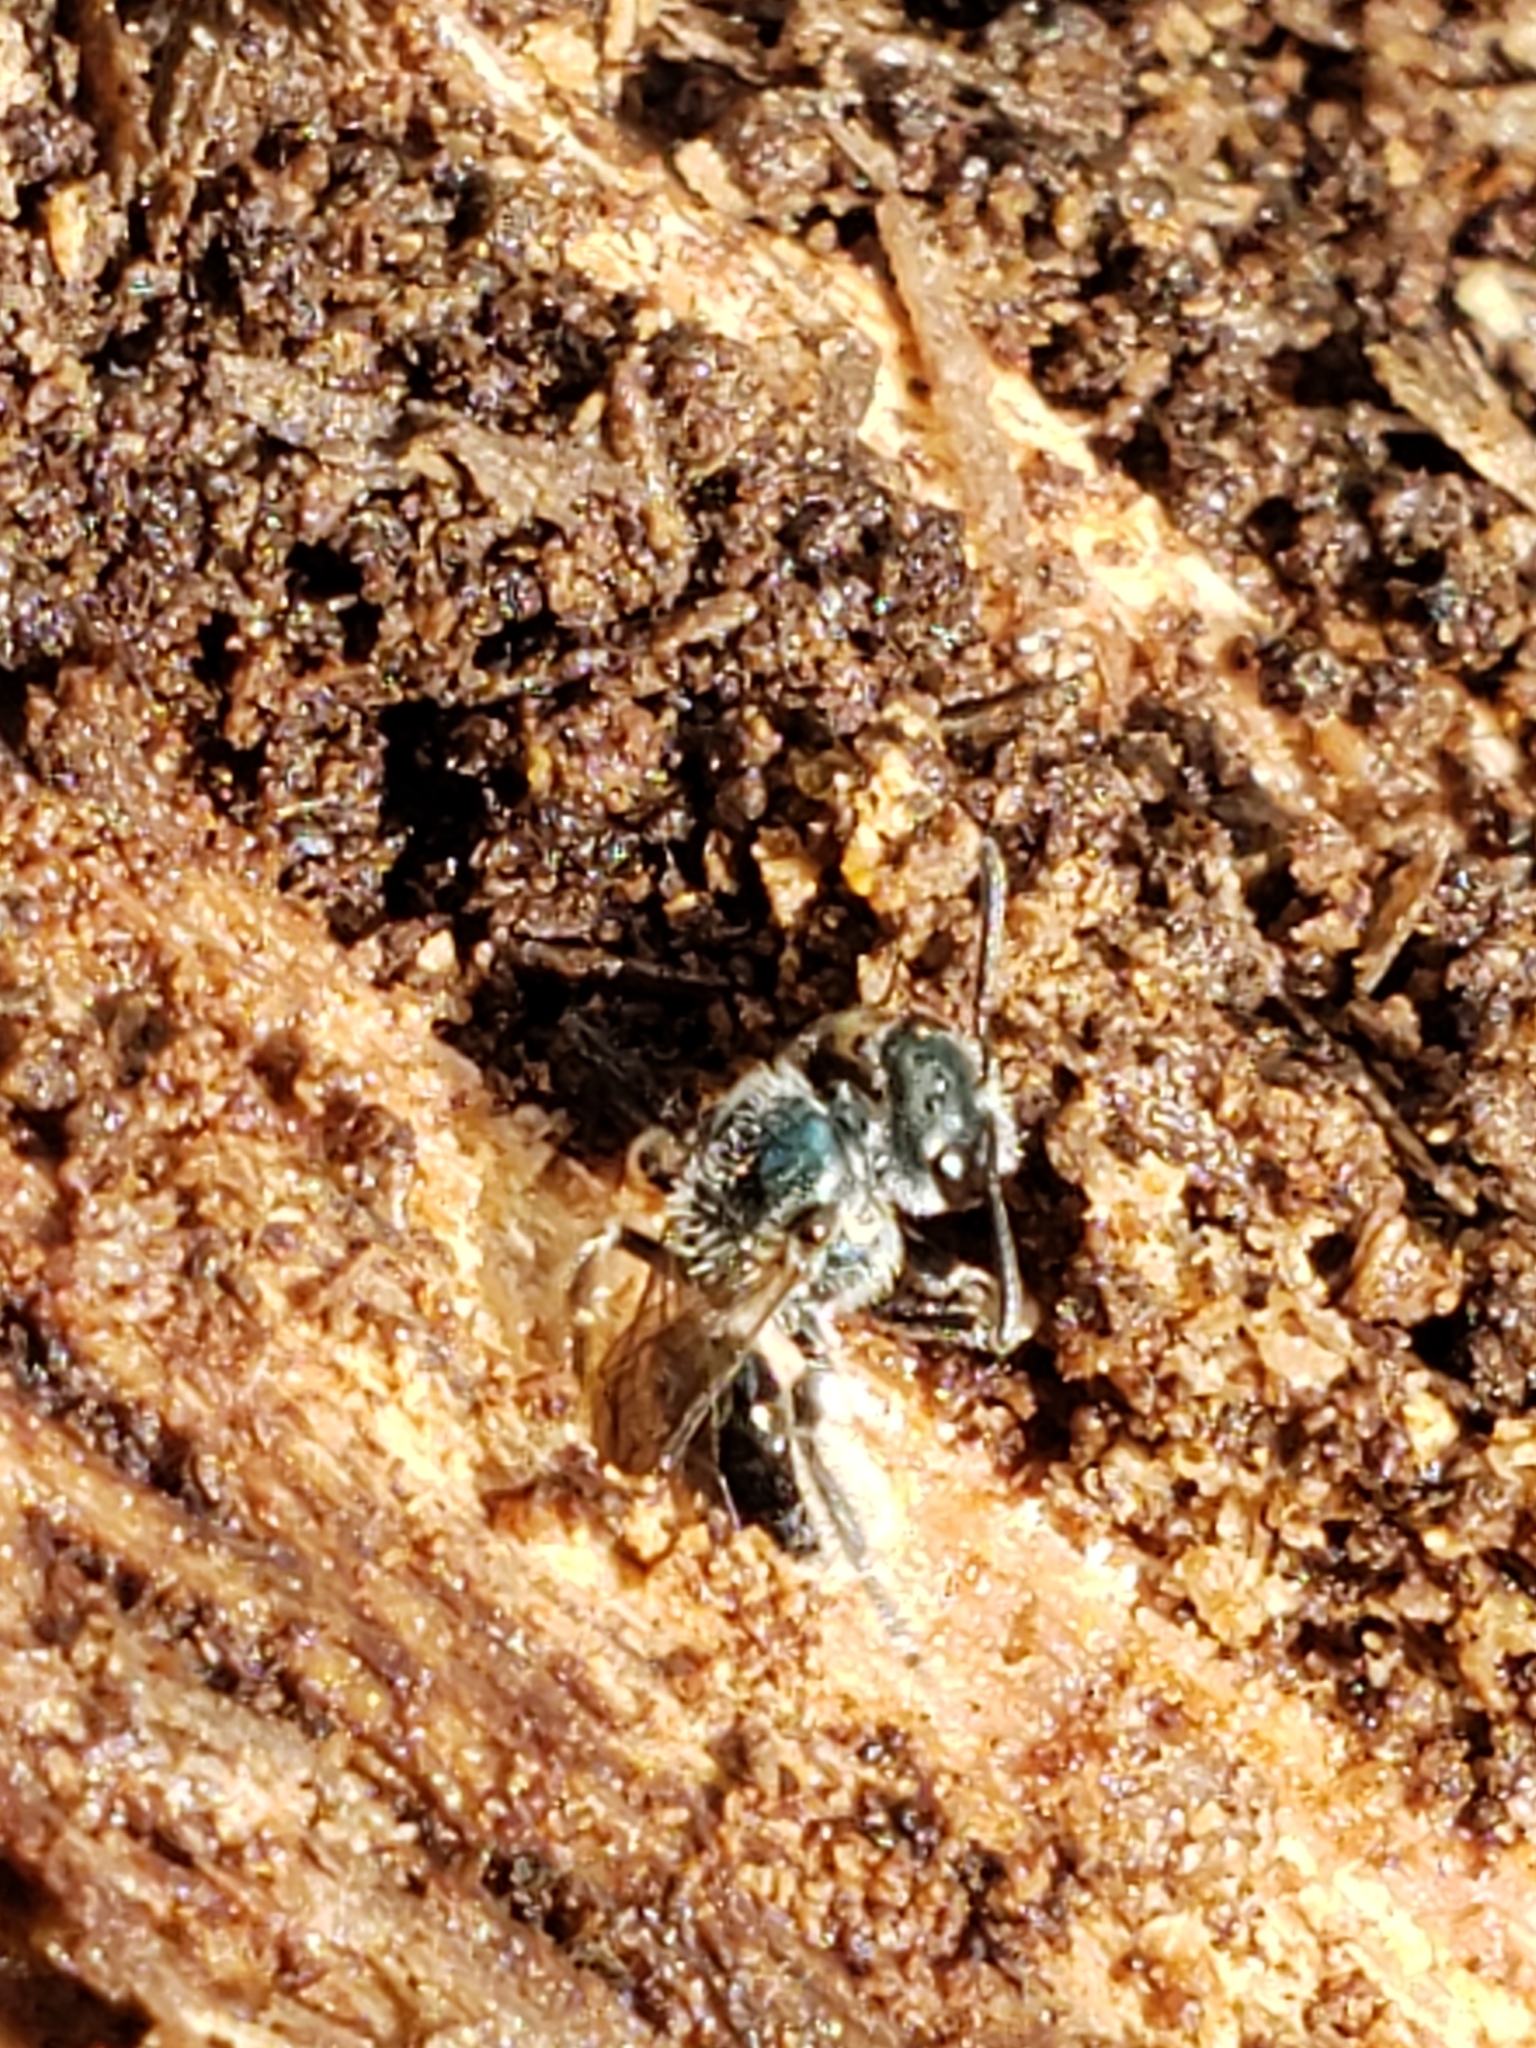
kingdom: Animalia
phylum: Arthropoda
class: Insecta
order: Hymenoptera
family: Halictidae
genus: Lasioglossum
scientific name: Lasioglossum coeruleum
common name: Deep-blue sweat bee
